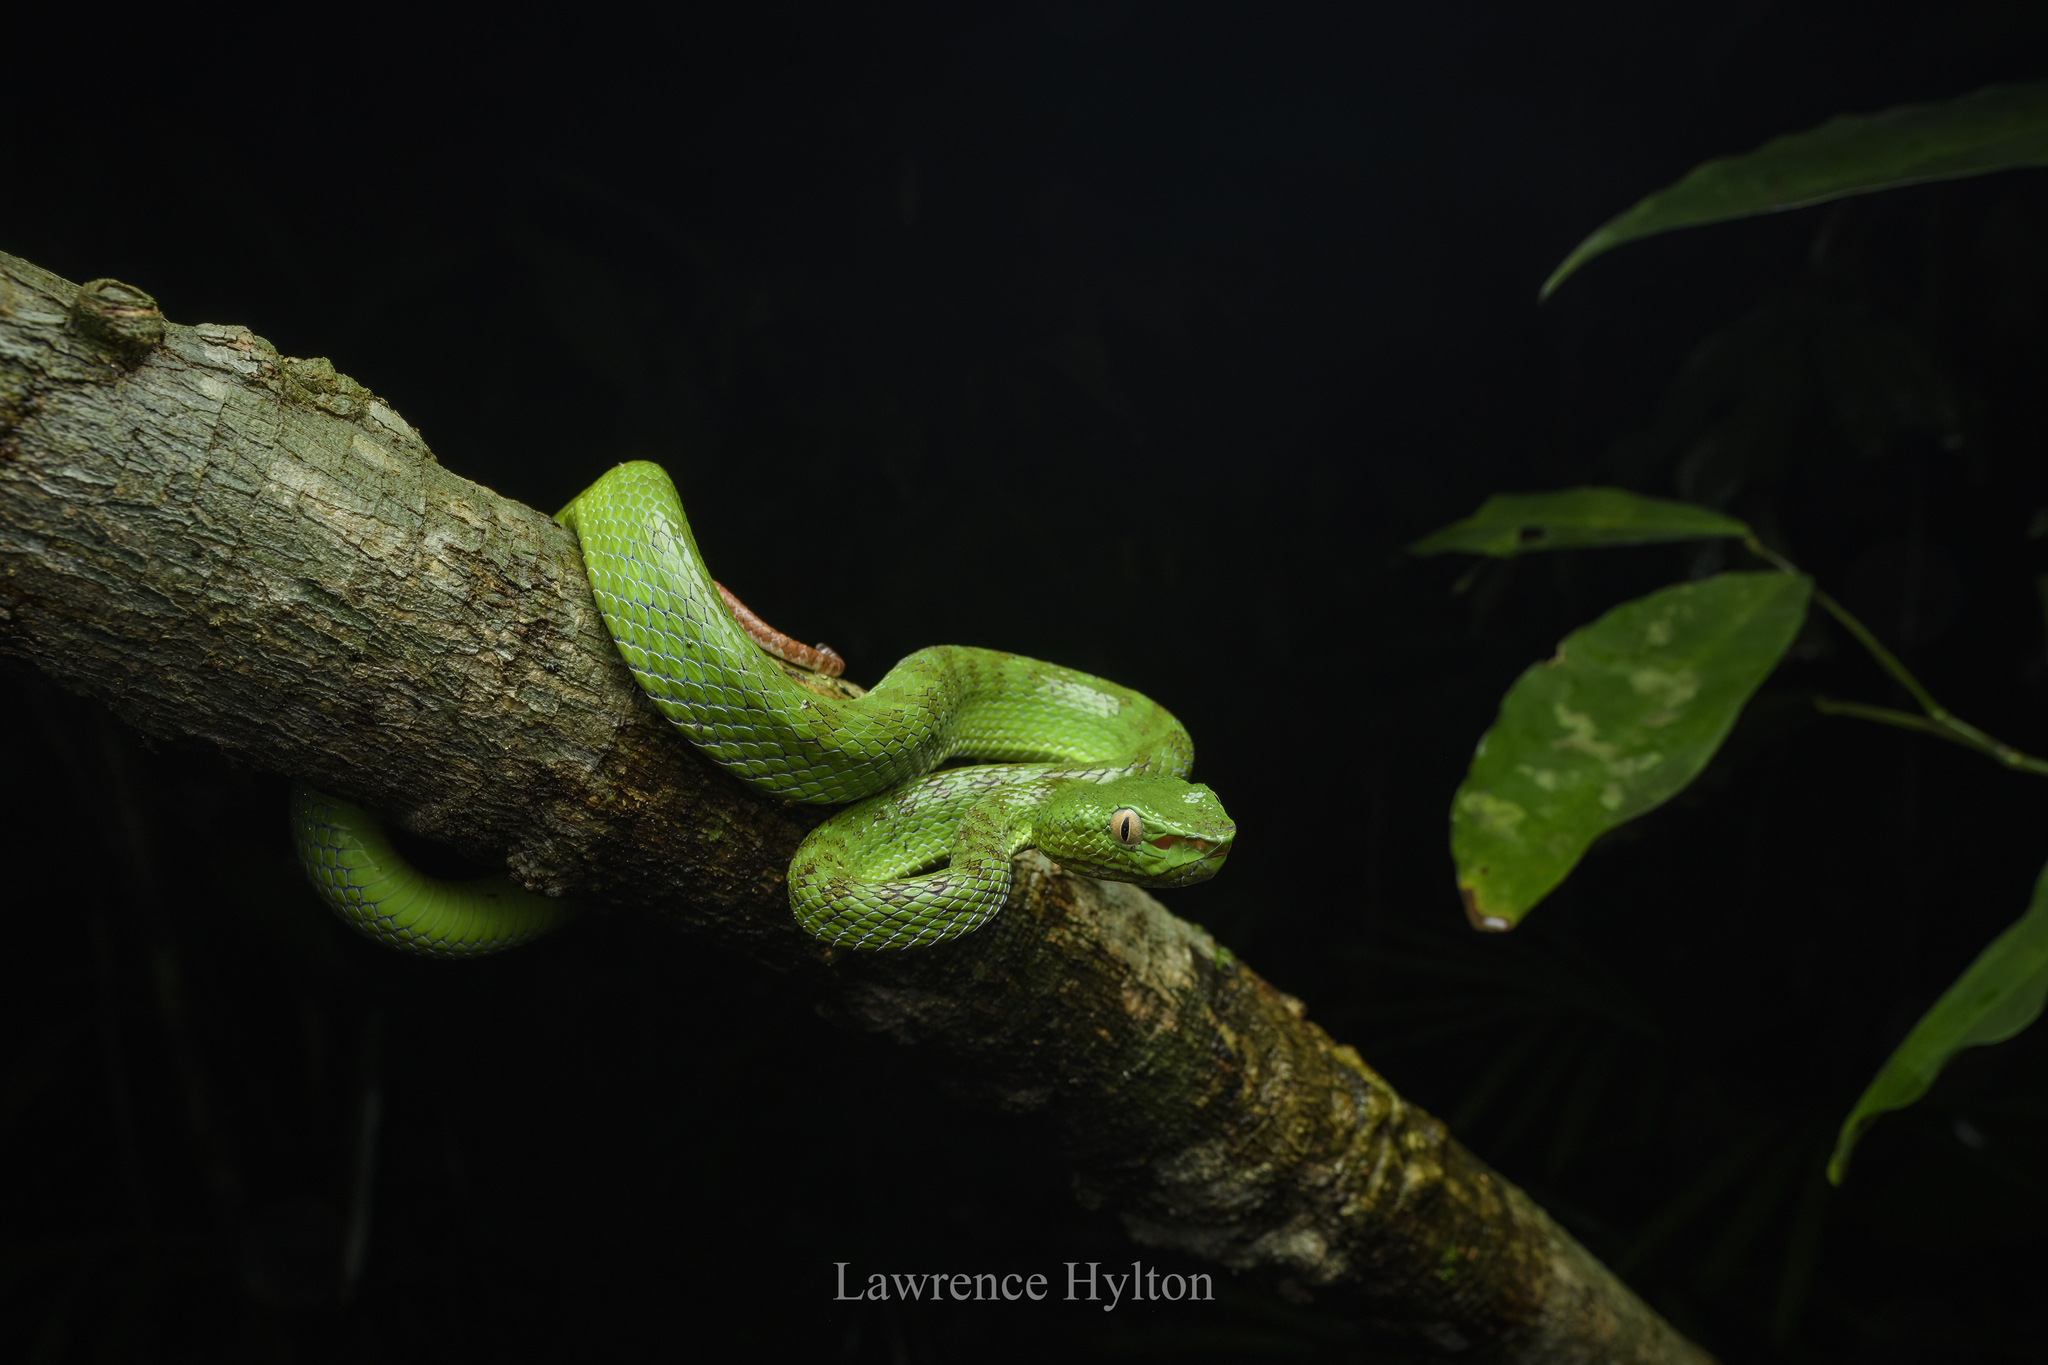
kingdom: Animalia
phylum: Chordata
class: Squamata
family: Viperidae
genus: Trimeresurus
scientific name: Trimeresurus sabahi
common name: Sabah bamboo pit viper
